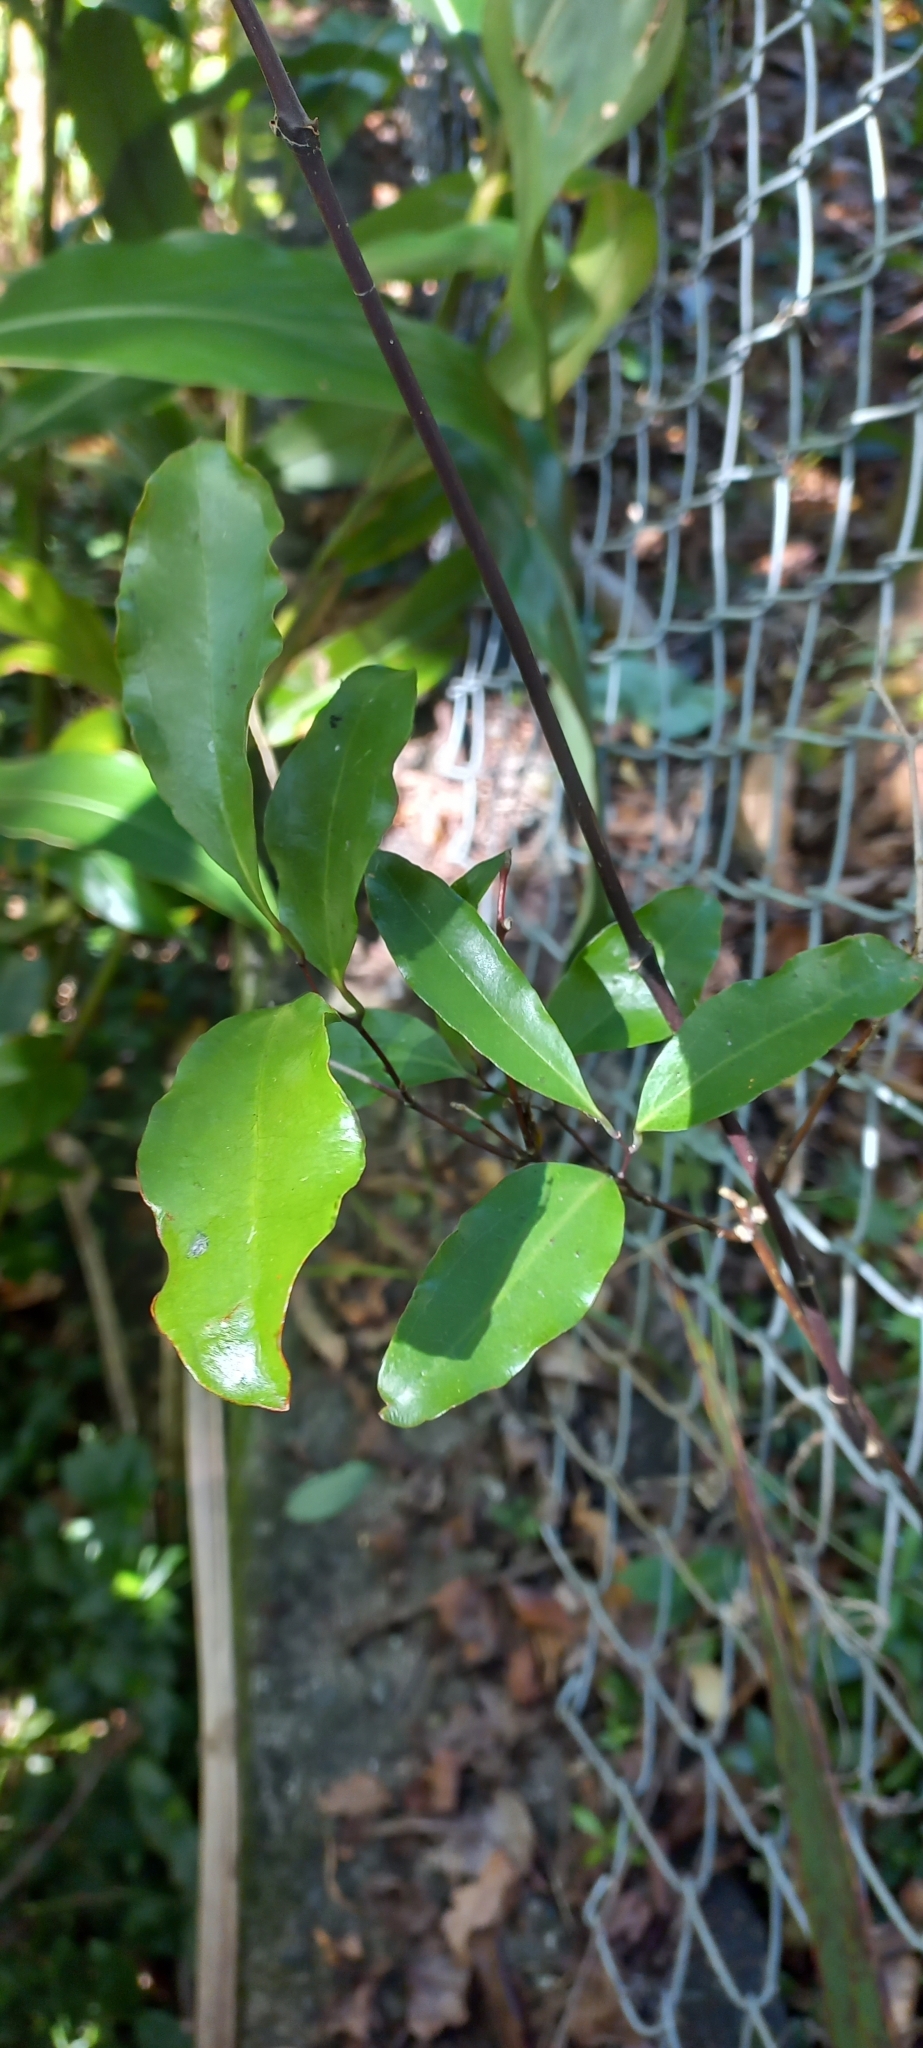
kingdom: Plantae
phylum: Tracheophyta
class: Magnoliopsida
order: Laurales
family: Monimiaceae
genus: Hedycarya
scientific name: Hedycarya arborea
